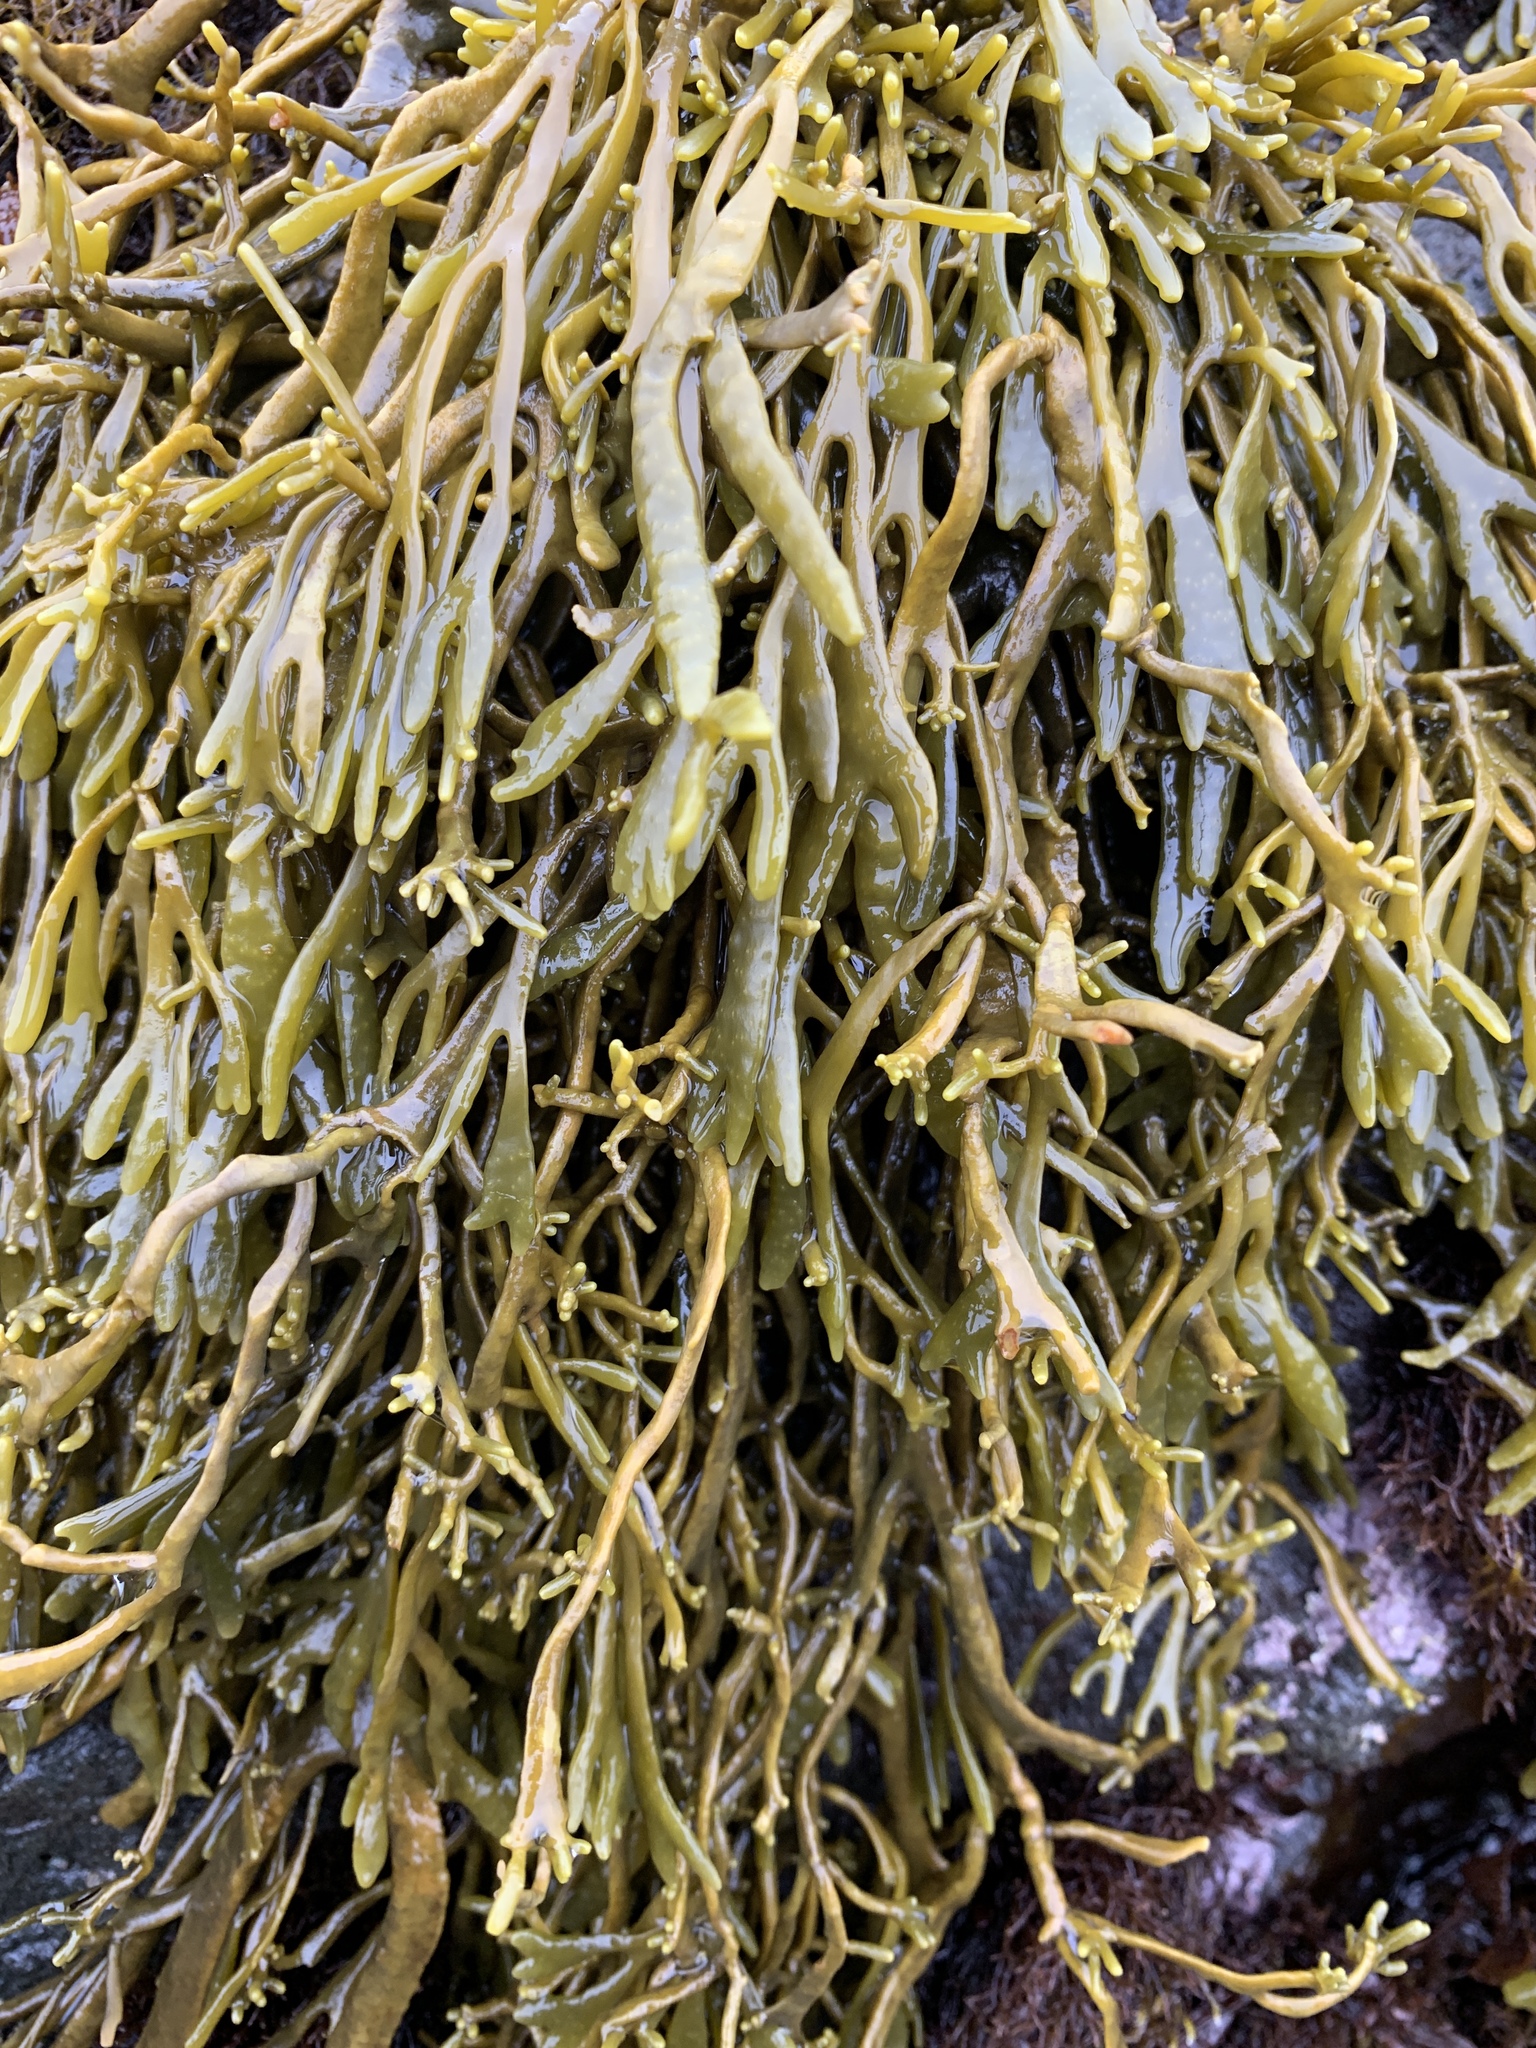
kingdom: Chromista
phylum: Ochrophyta
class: Phaeophyceae
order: Fucales
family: Fucaceae
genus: Silvetia
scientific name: Silvetia
